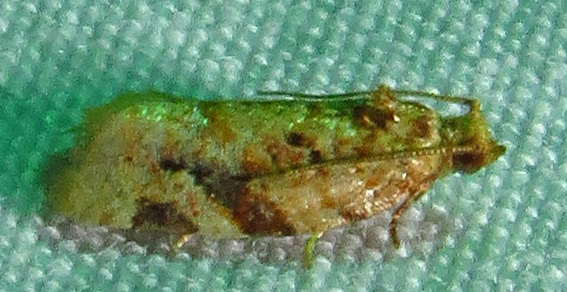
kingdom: Animalia
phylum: Arthropoda
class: Insecta
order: Lepidoptera
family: Tortricidae
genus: Argyrotaenia
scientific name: Argyrotaenia velutinana
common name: Red-banded leafroller moth
